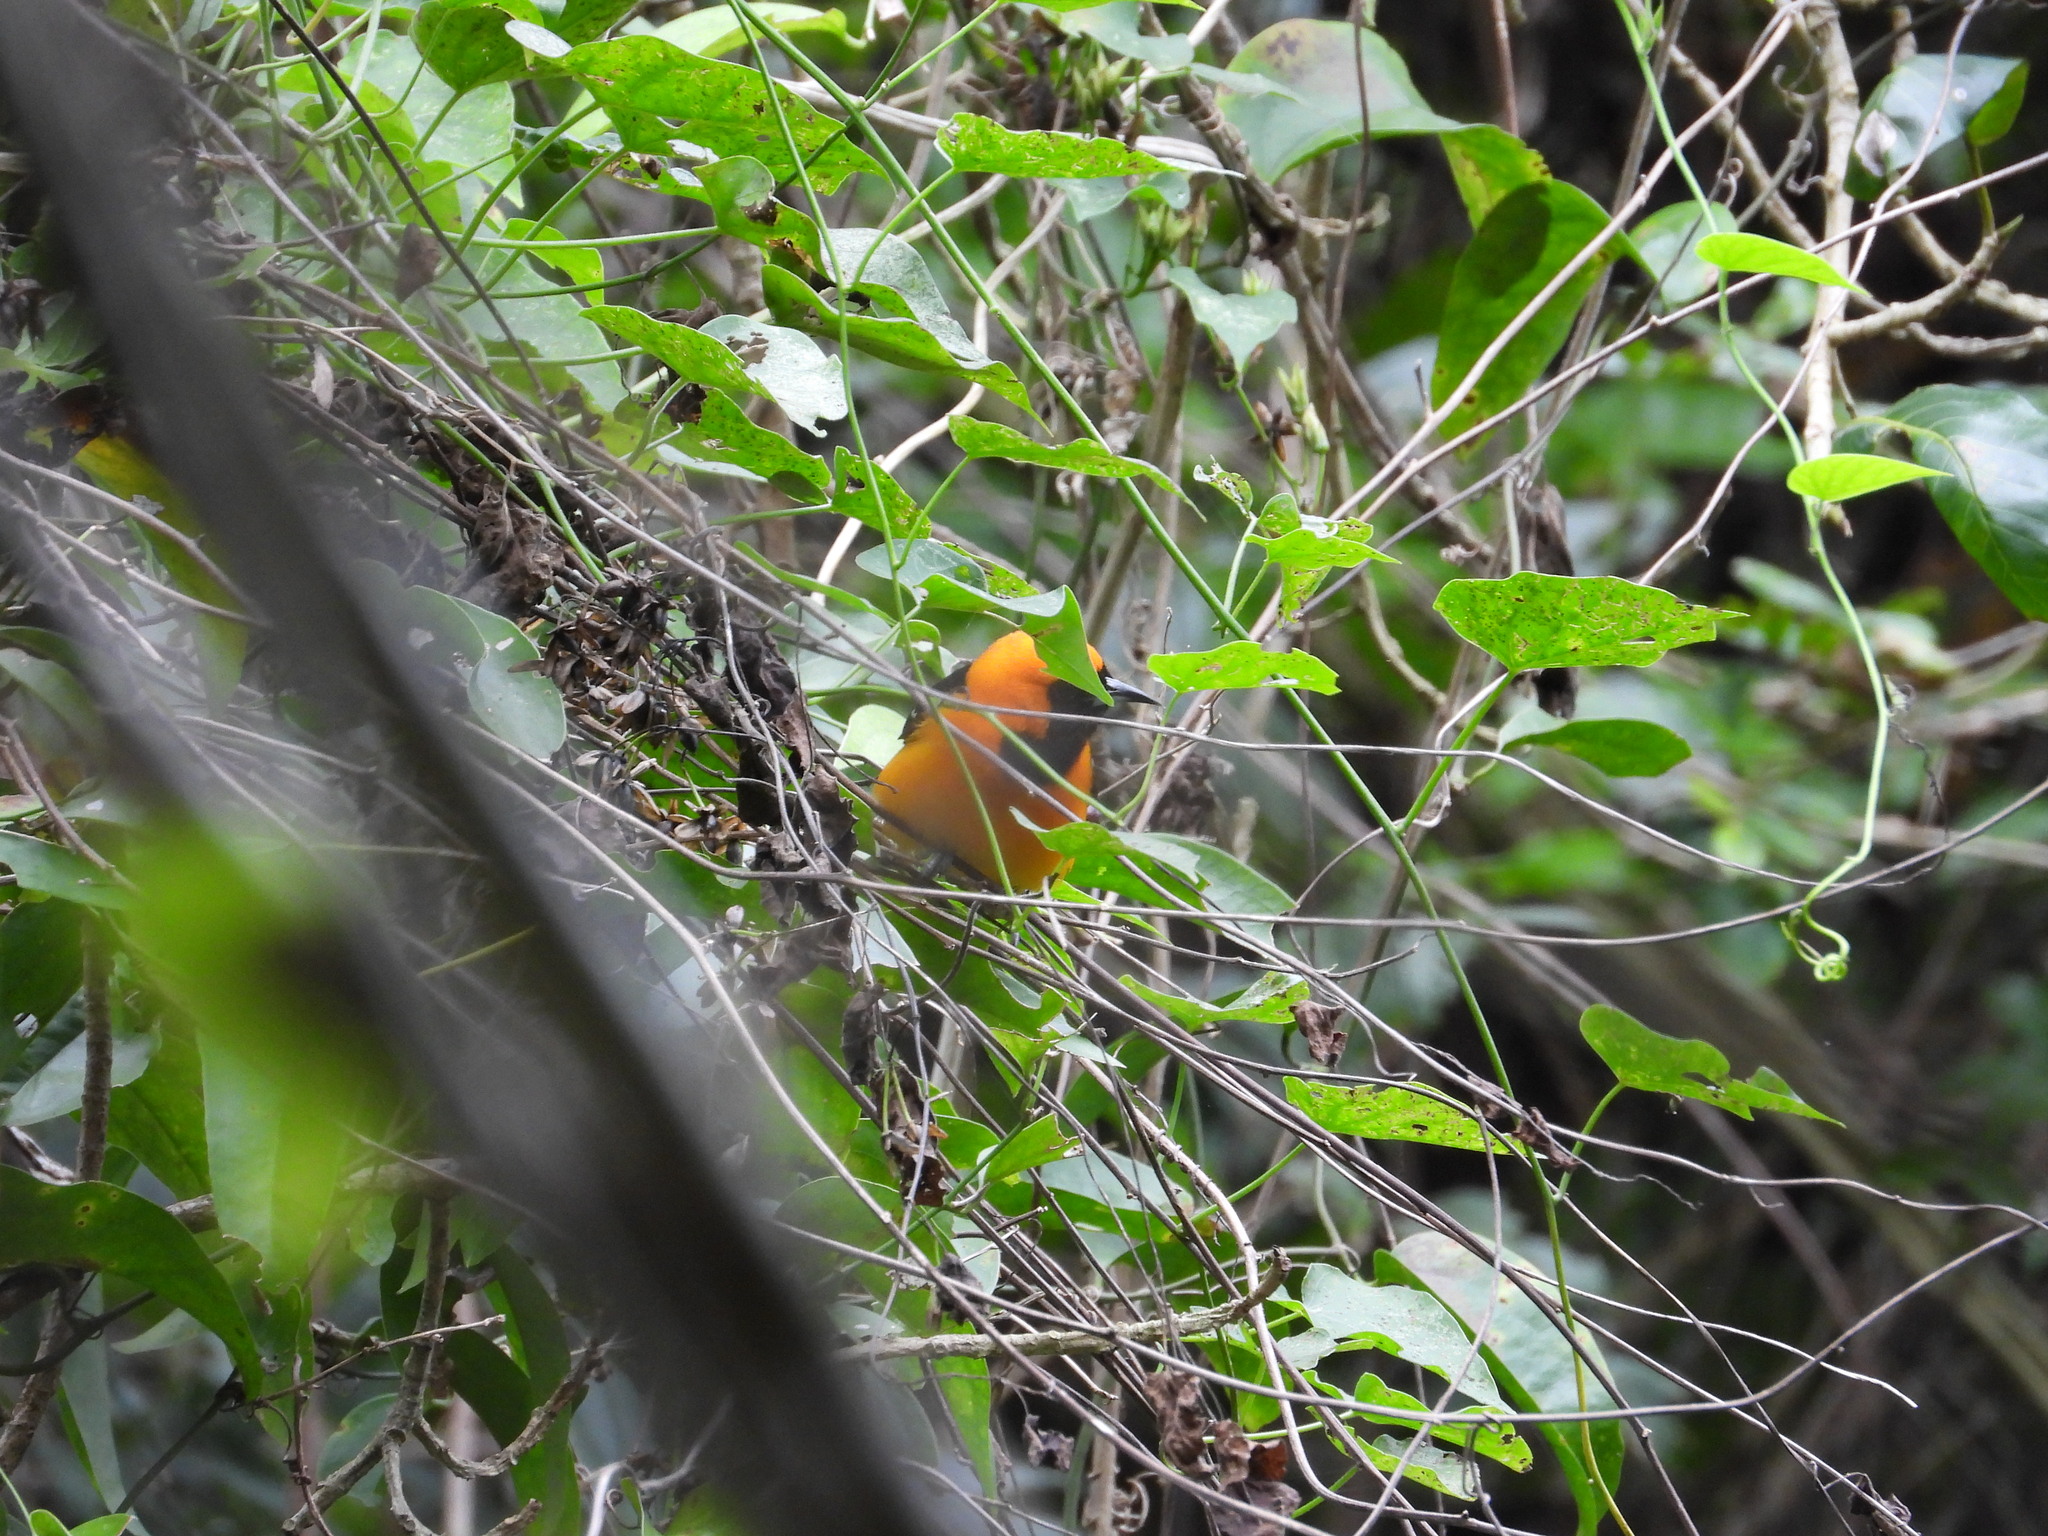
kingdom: Animalia
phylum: Chordata
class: Aves
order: Passeriformes
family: Icteridae
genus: Icterus
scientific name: Icterus cucullatus
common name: Hooded oriole
